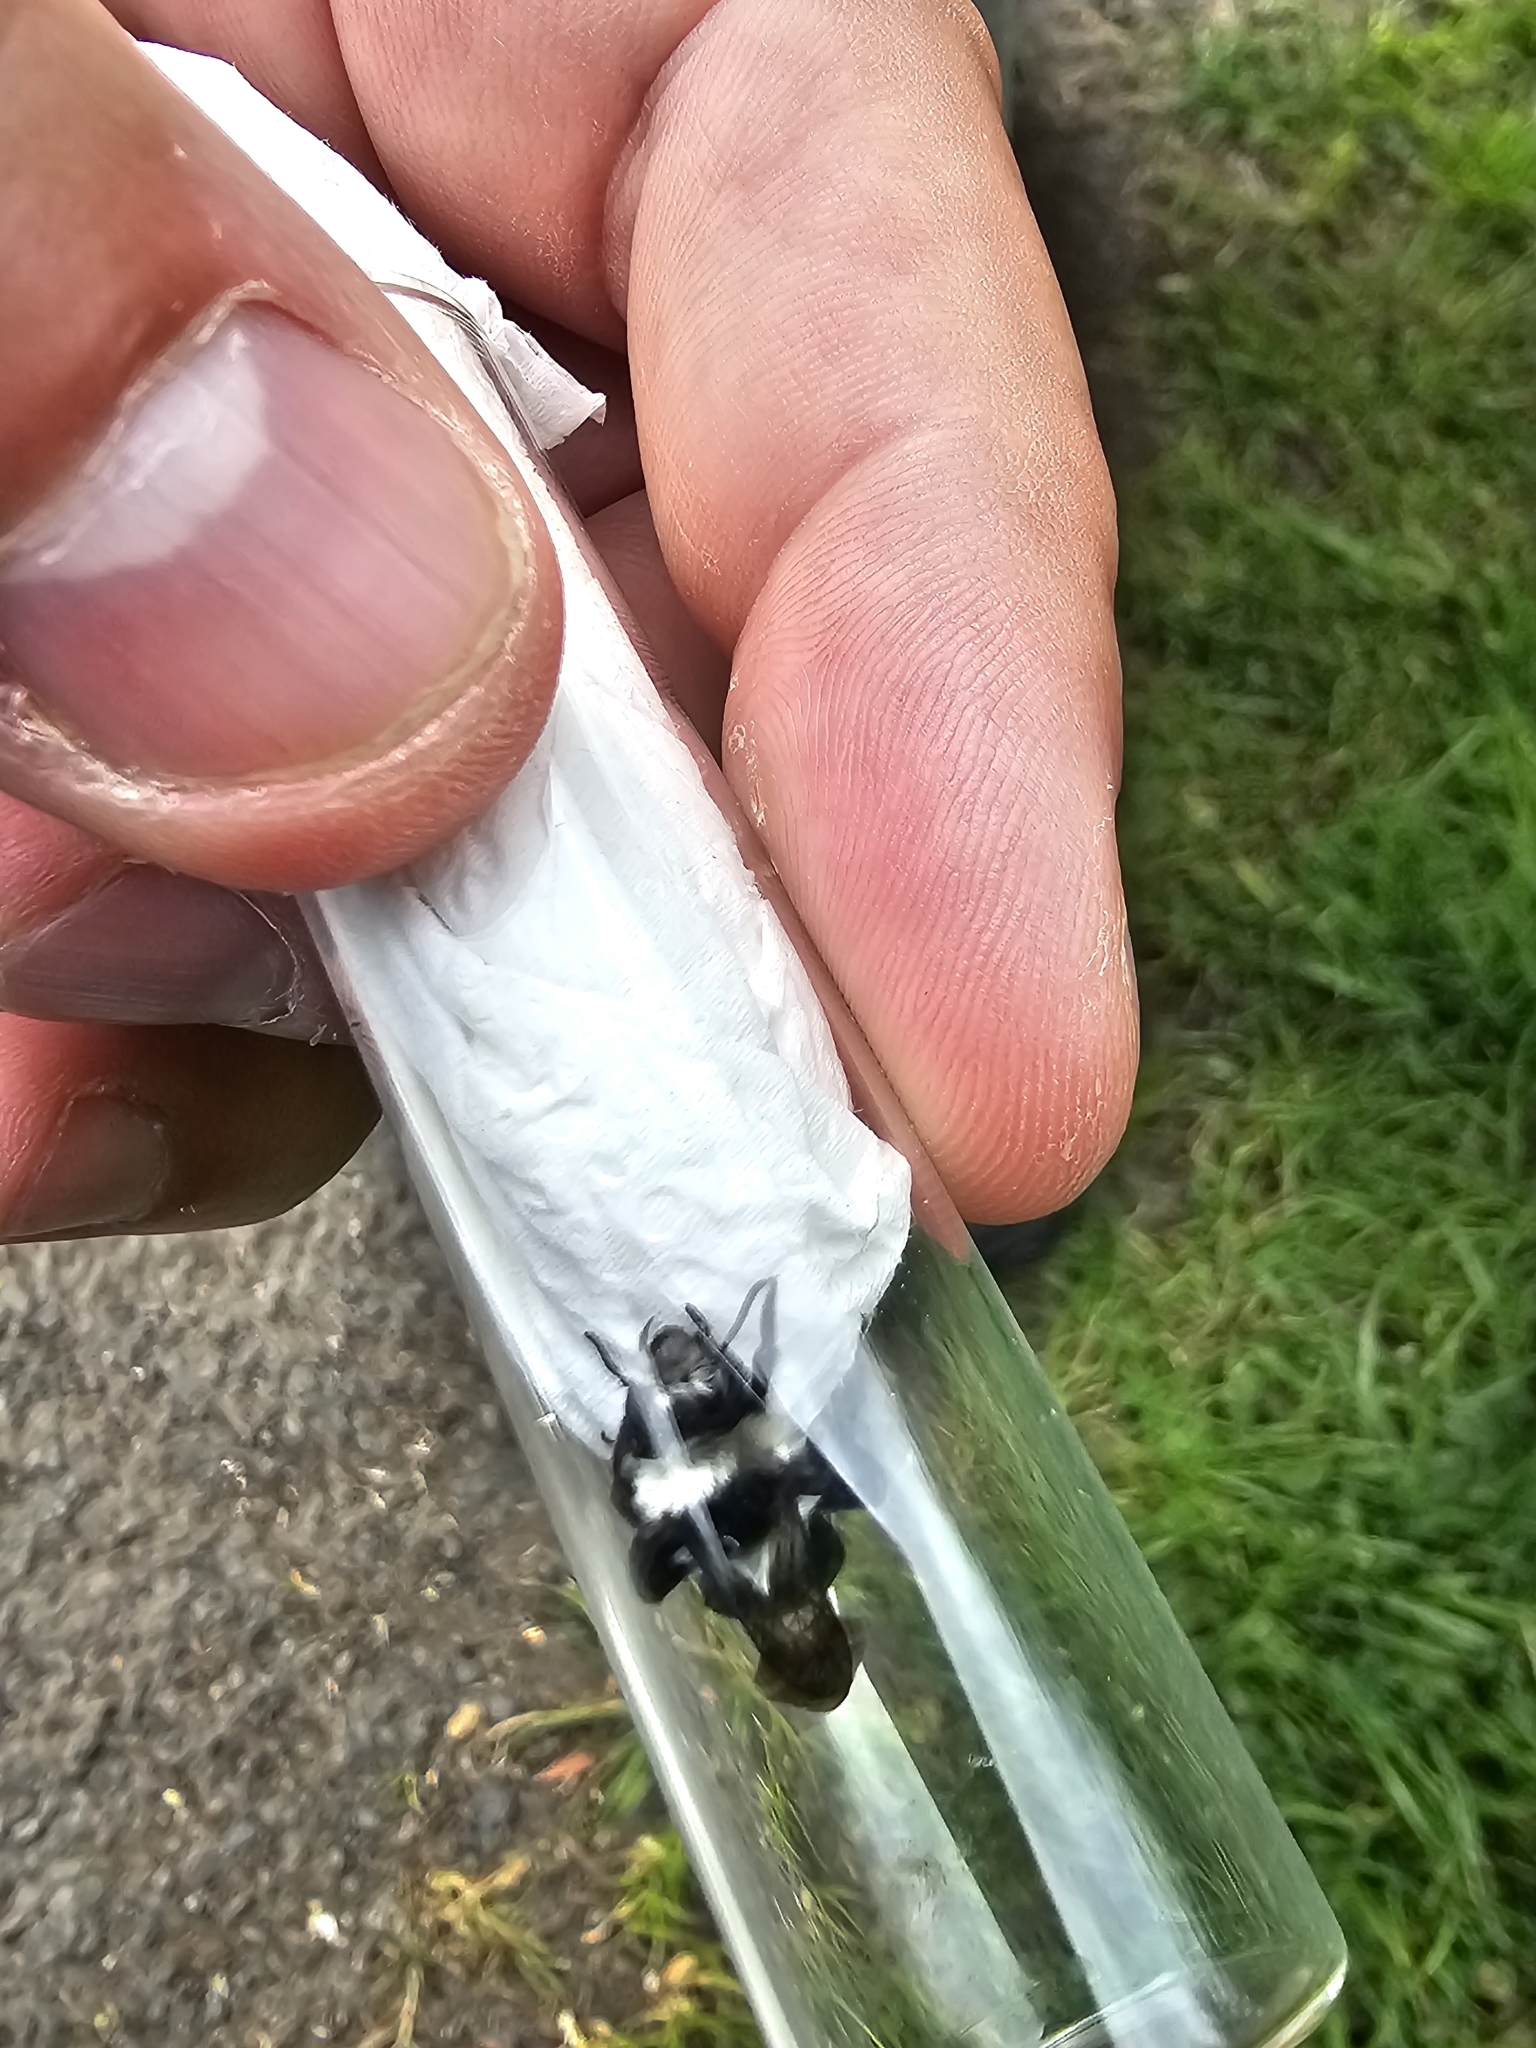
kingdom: Animalia
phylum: Arthropoda
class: Insecta
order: Hymenoptera
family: Andrenidae
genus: Andrena
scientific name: Andrena cineraria
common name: Ashy mining bee
